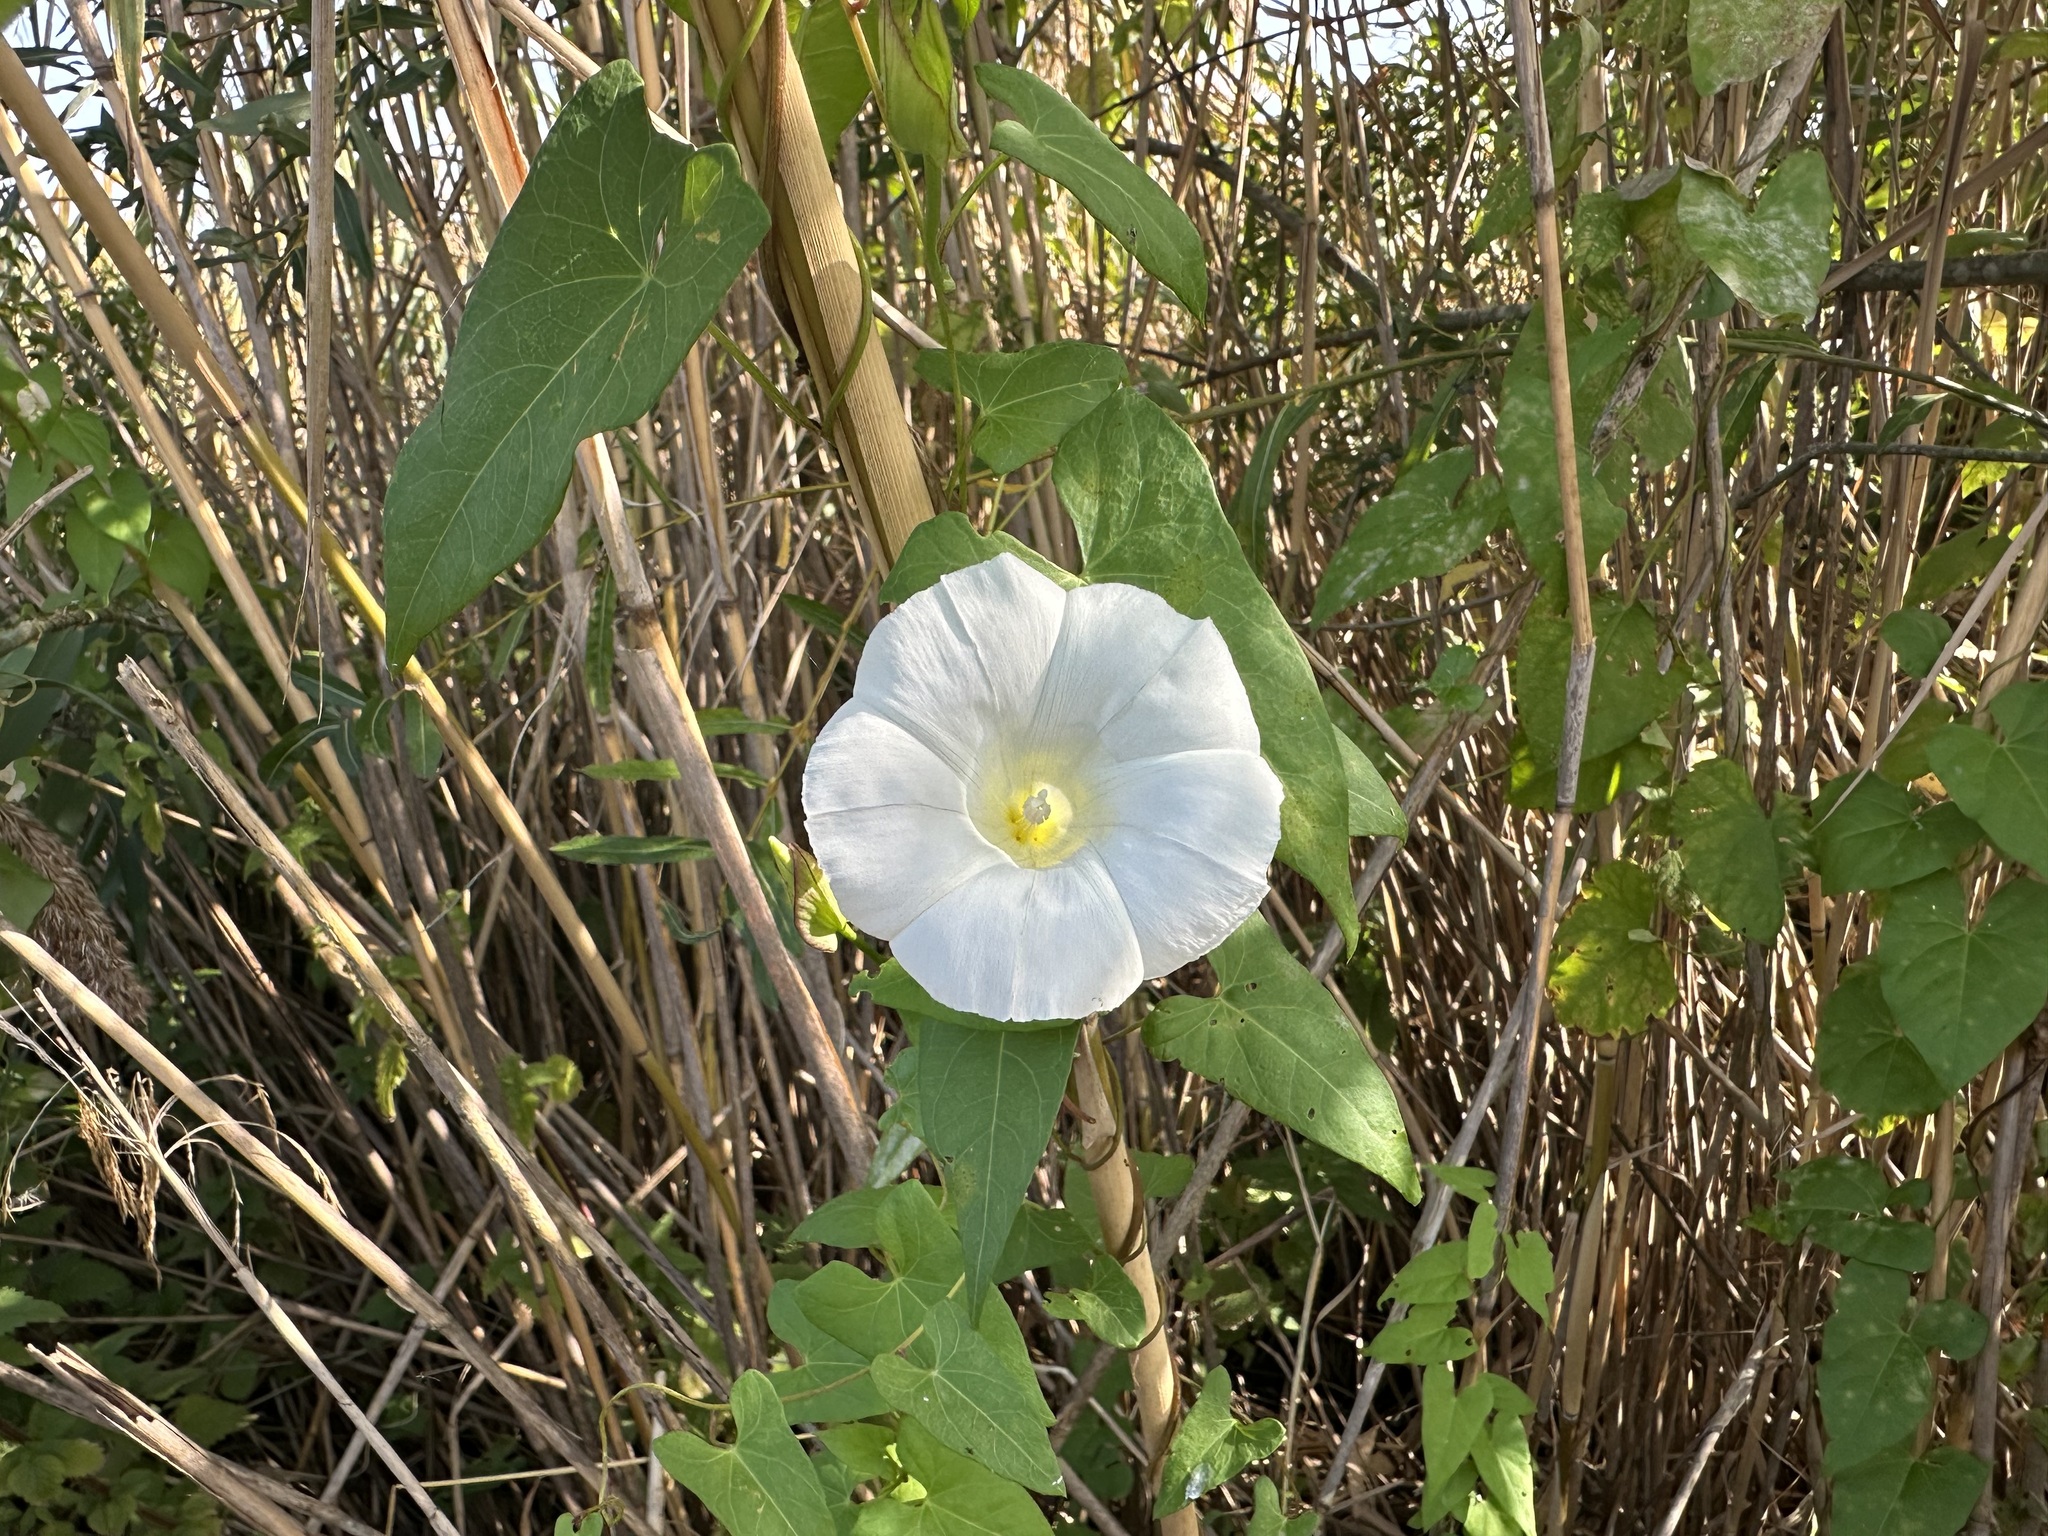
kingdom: Plantae
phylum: Tracheophyta
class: Magnoliopsida
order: Solanales
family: Convolvulaceae
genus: Calystegia
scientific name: Calystegia sepium
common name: Hedge bindweed
